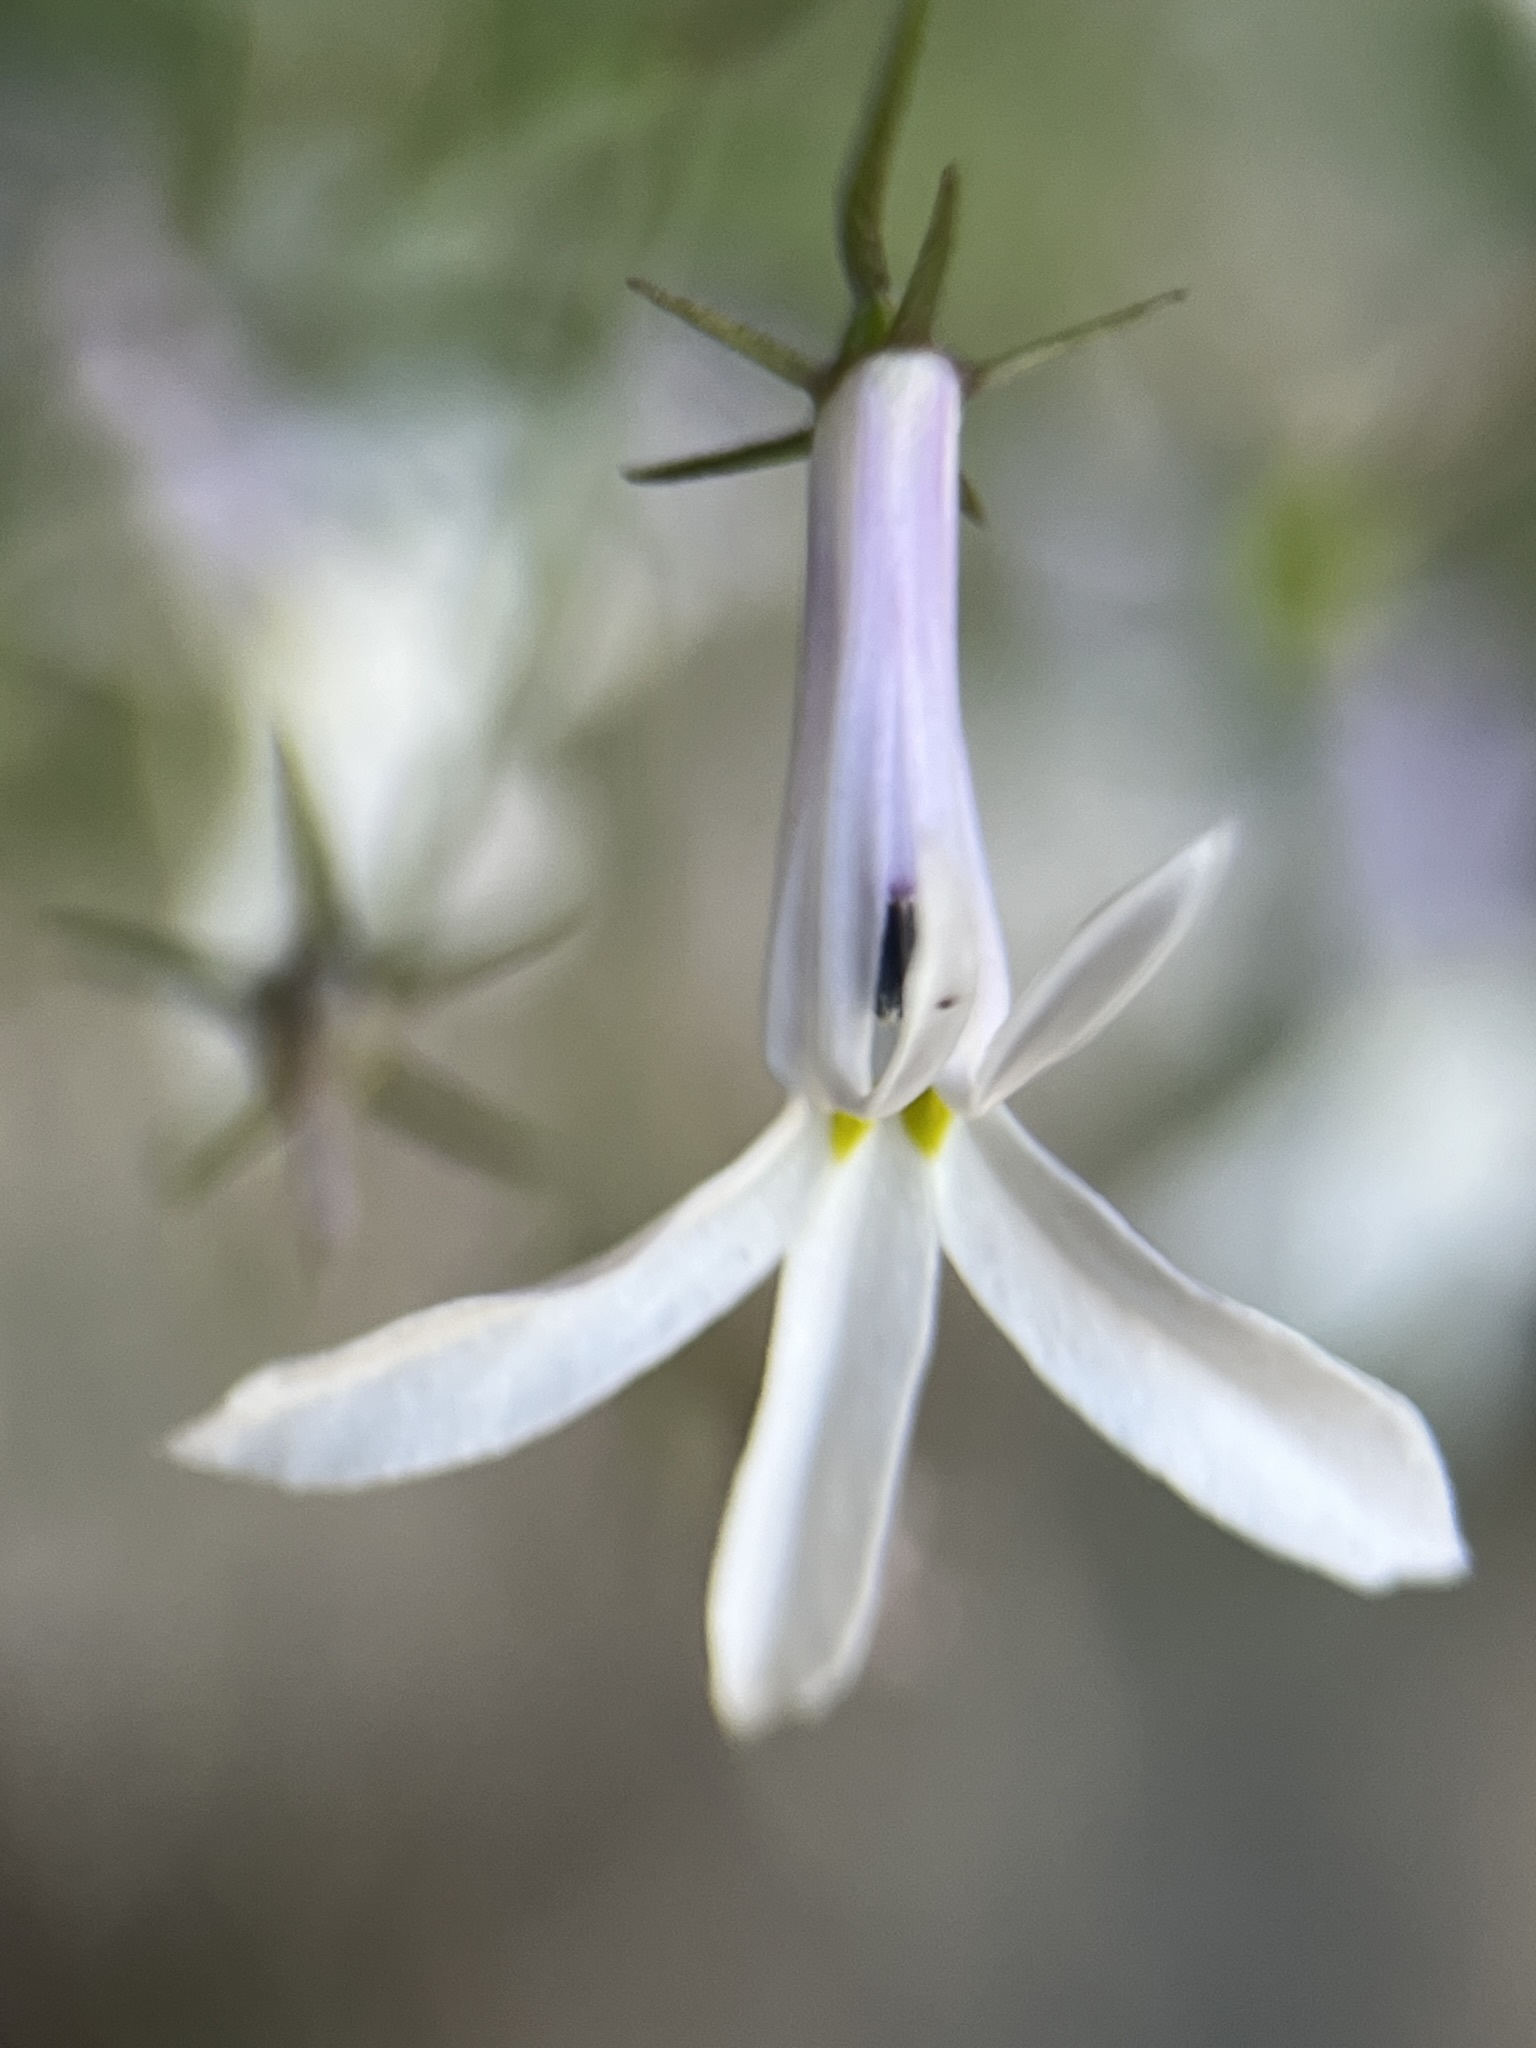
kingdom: Plantae
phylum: Tracheophyta
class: Magnoliopsida
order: Asterales
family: Campanulaceae
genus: Lobelia
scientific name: Lobelia pubescens
